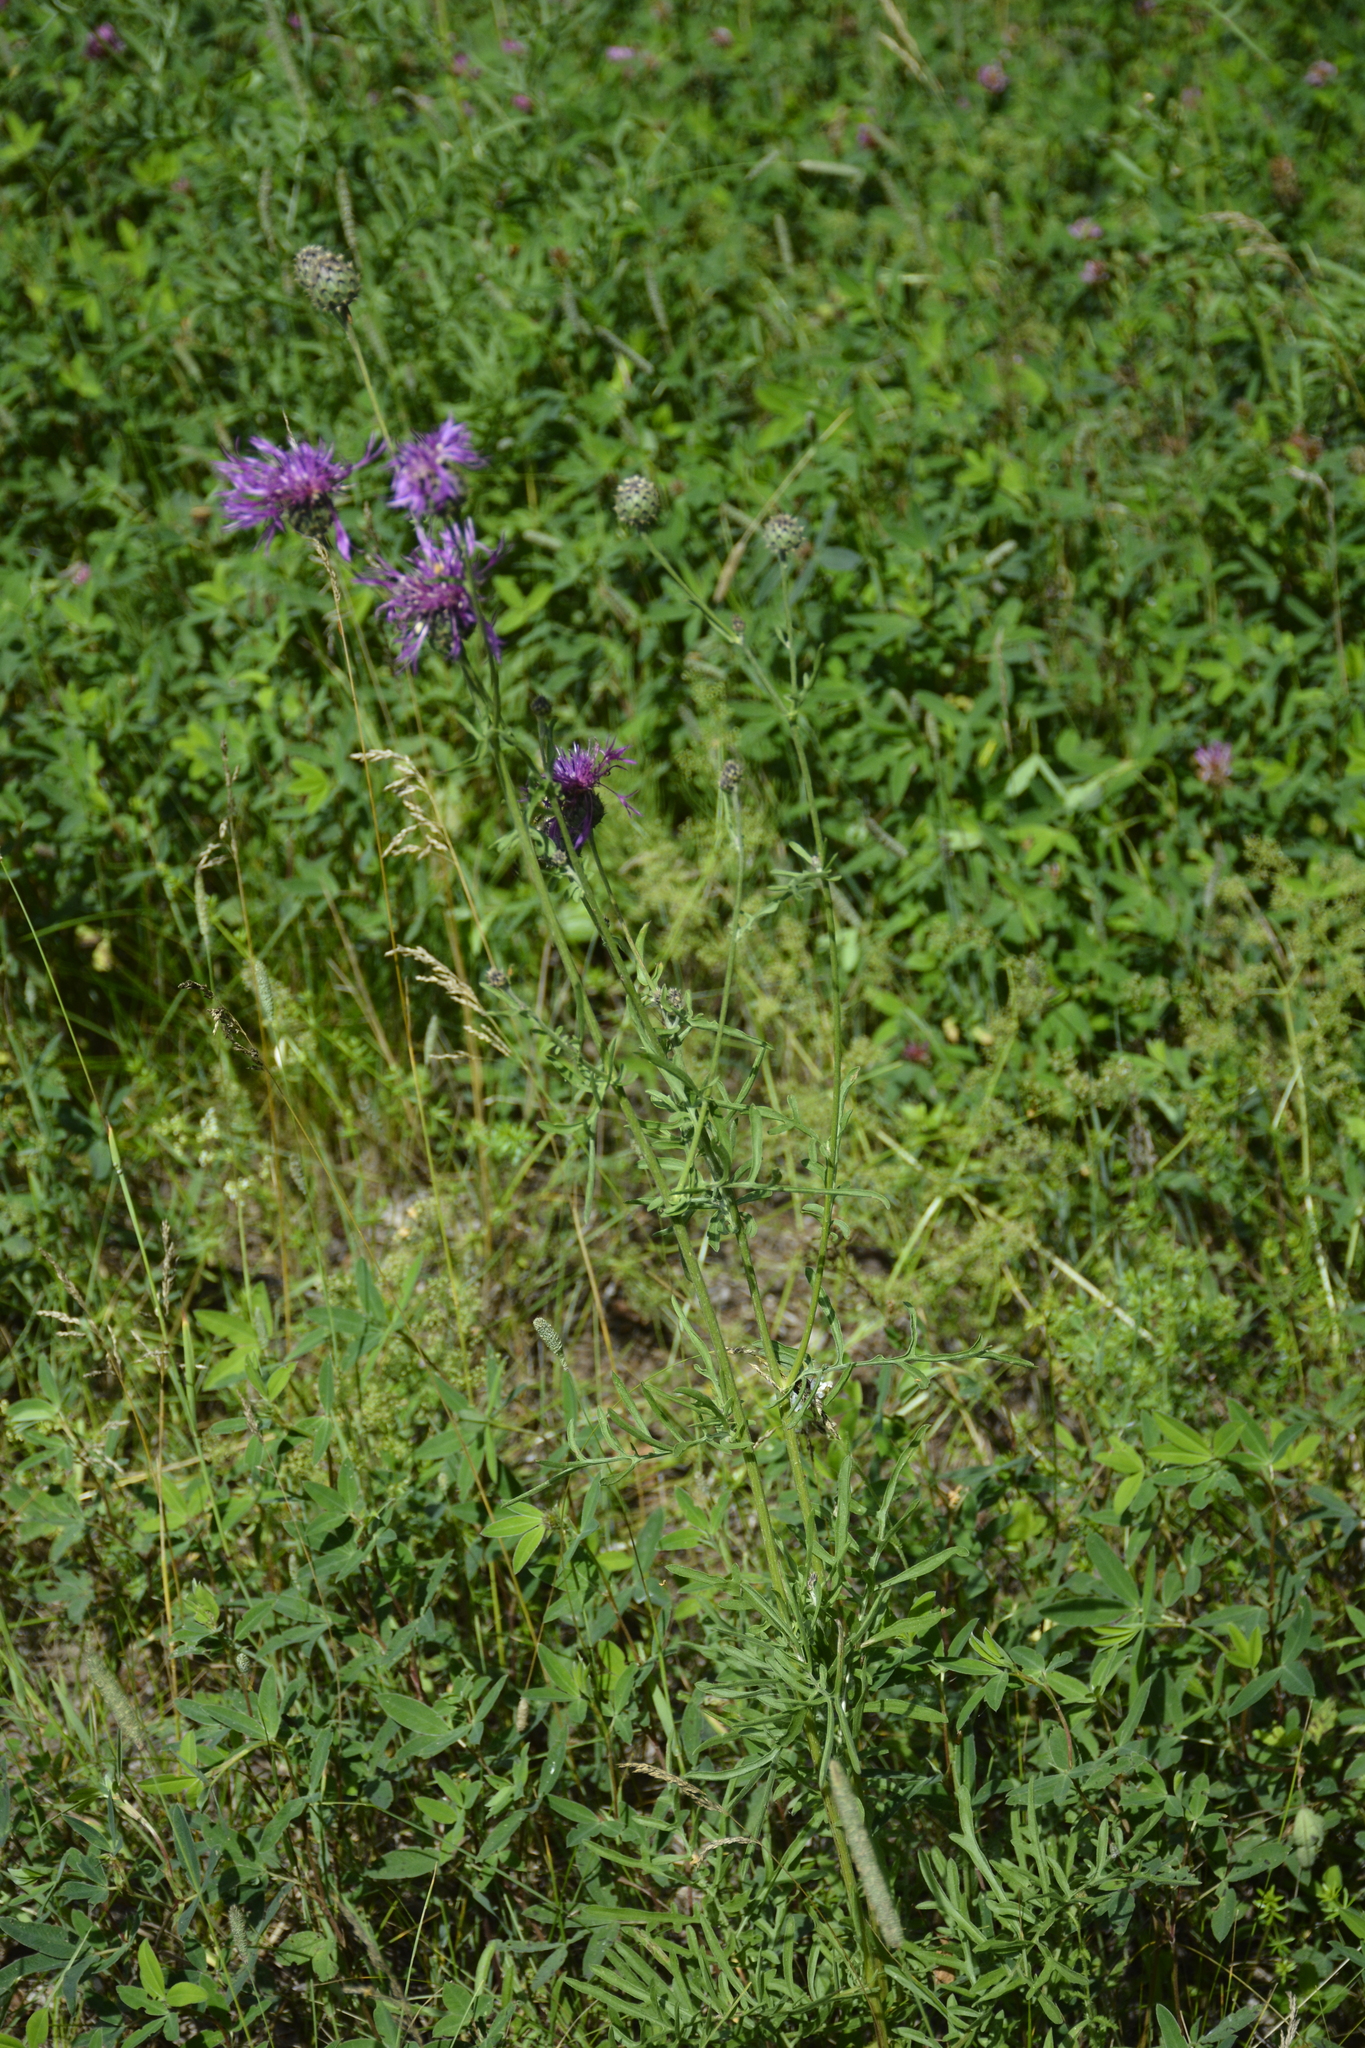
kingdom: Plantae
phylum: Tracheophyta
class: Magnoliopsida
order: Asterales
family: Asteraceae
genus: Centaurea
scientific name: Centaurea scabiosa
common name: Greater knapweed
